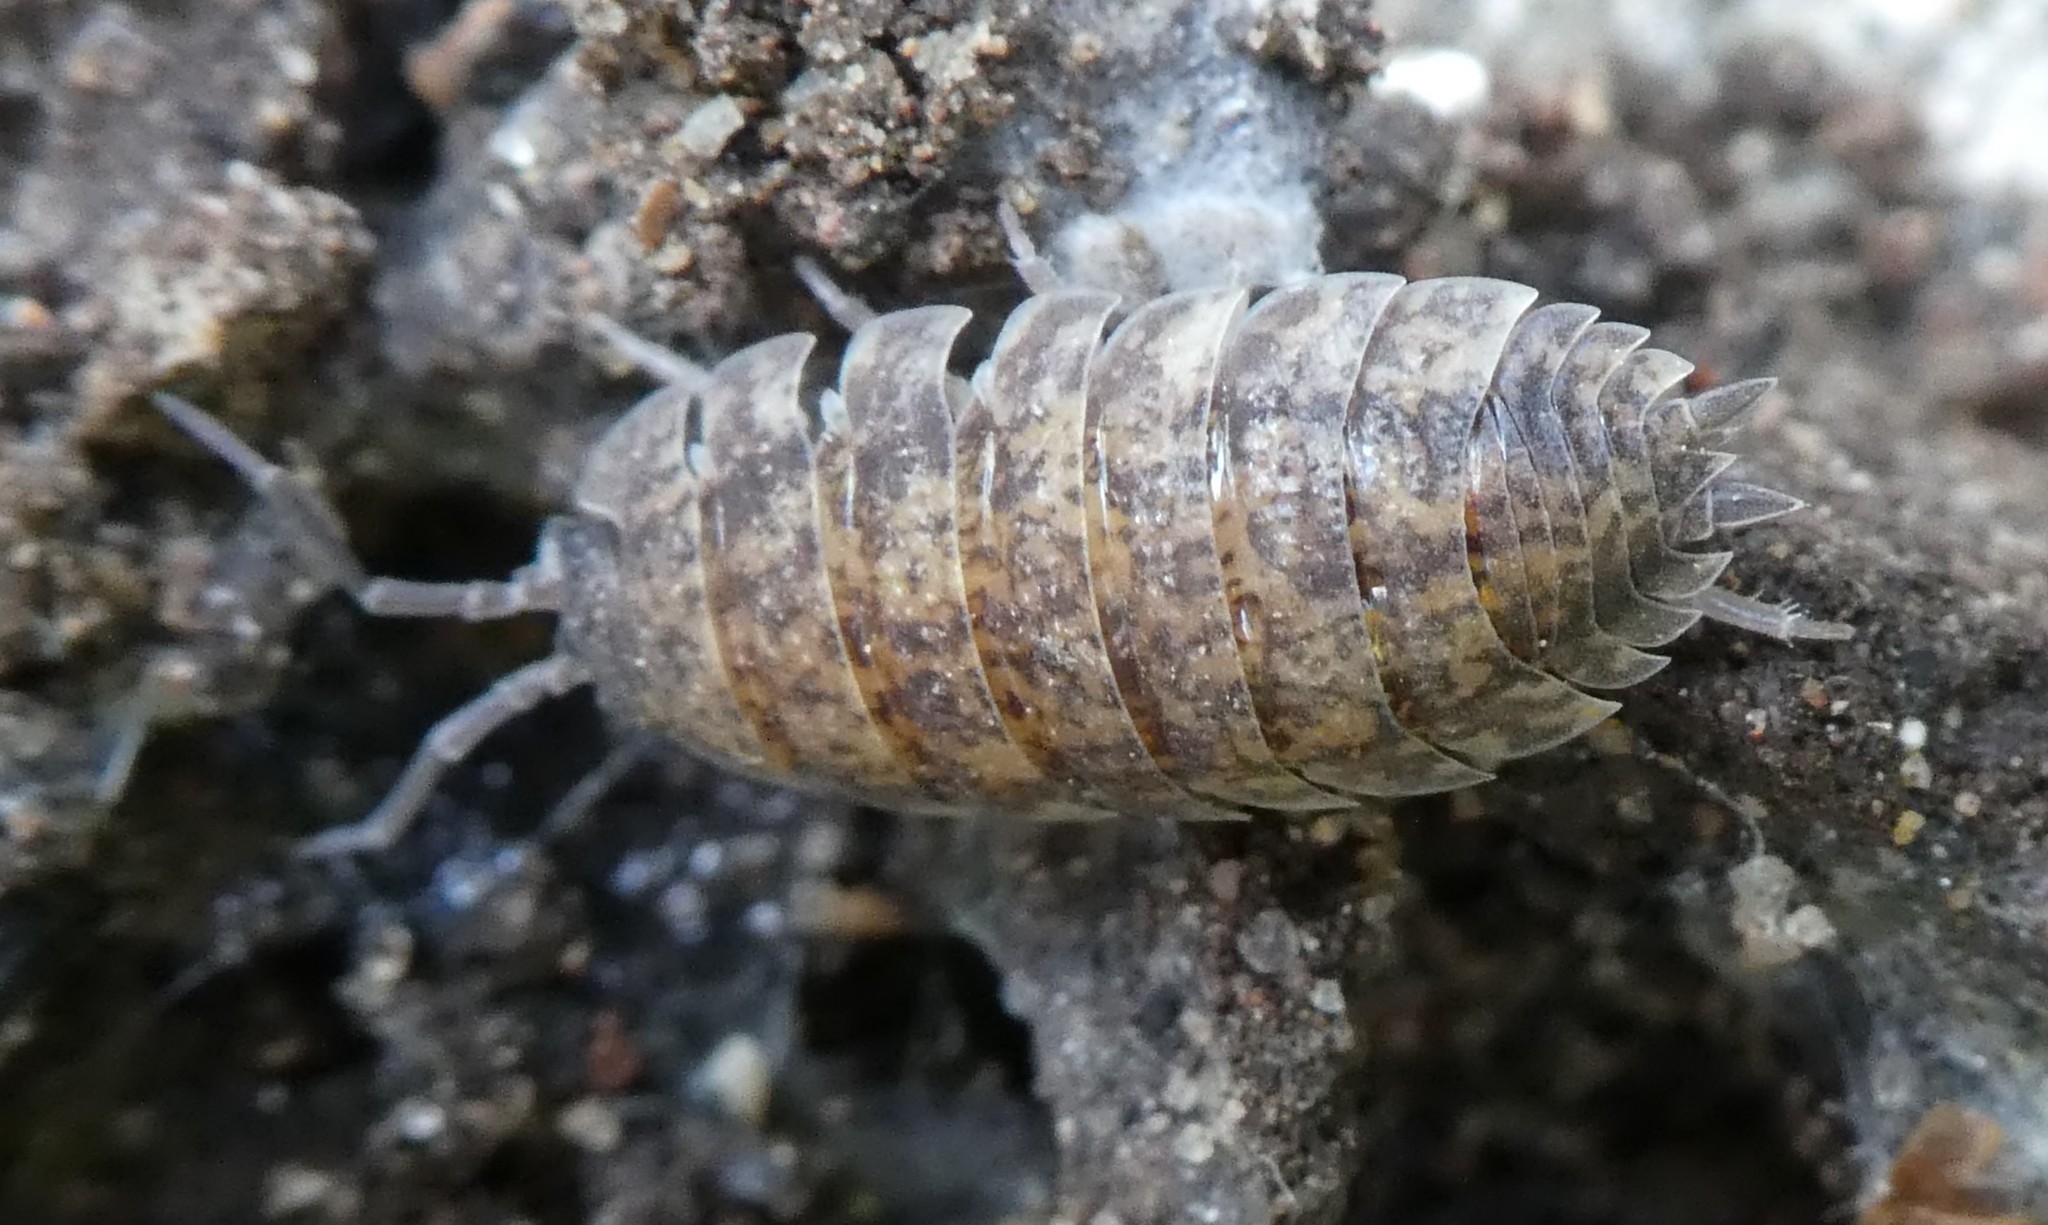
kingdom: Animalia
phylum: Arthropoda
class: Malacostraca
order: Isopoda
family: Porcellionidae
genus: Porcellio
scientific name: Porcellio scaber
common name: Common rough woodlouse
